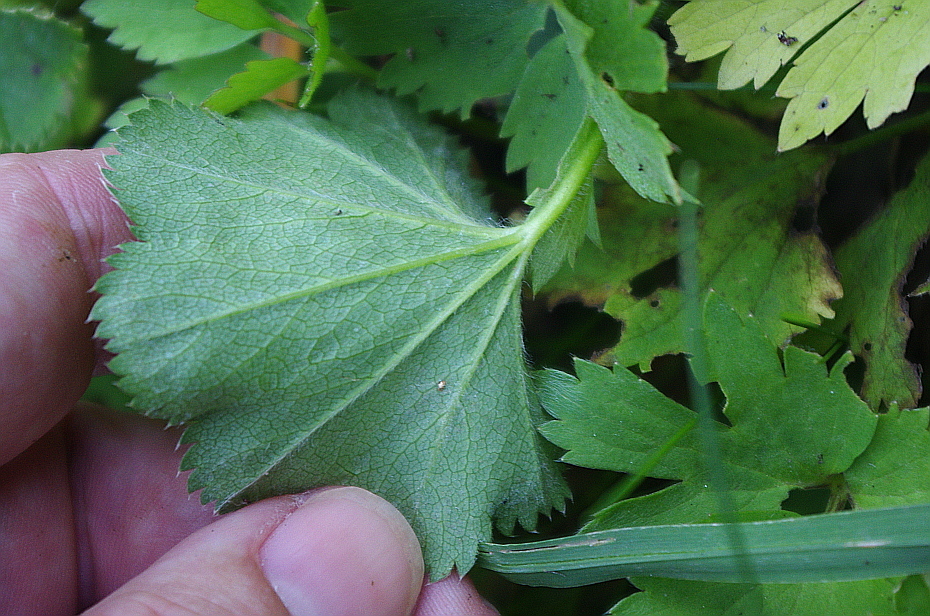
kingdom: Plantae
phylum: Tracheophyta
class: Magnoliopsida
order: Rosales
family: Rosaceae
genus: Alchemilla
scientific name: Alchemilla semilunaris
